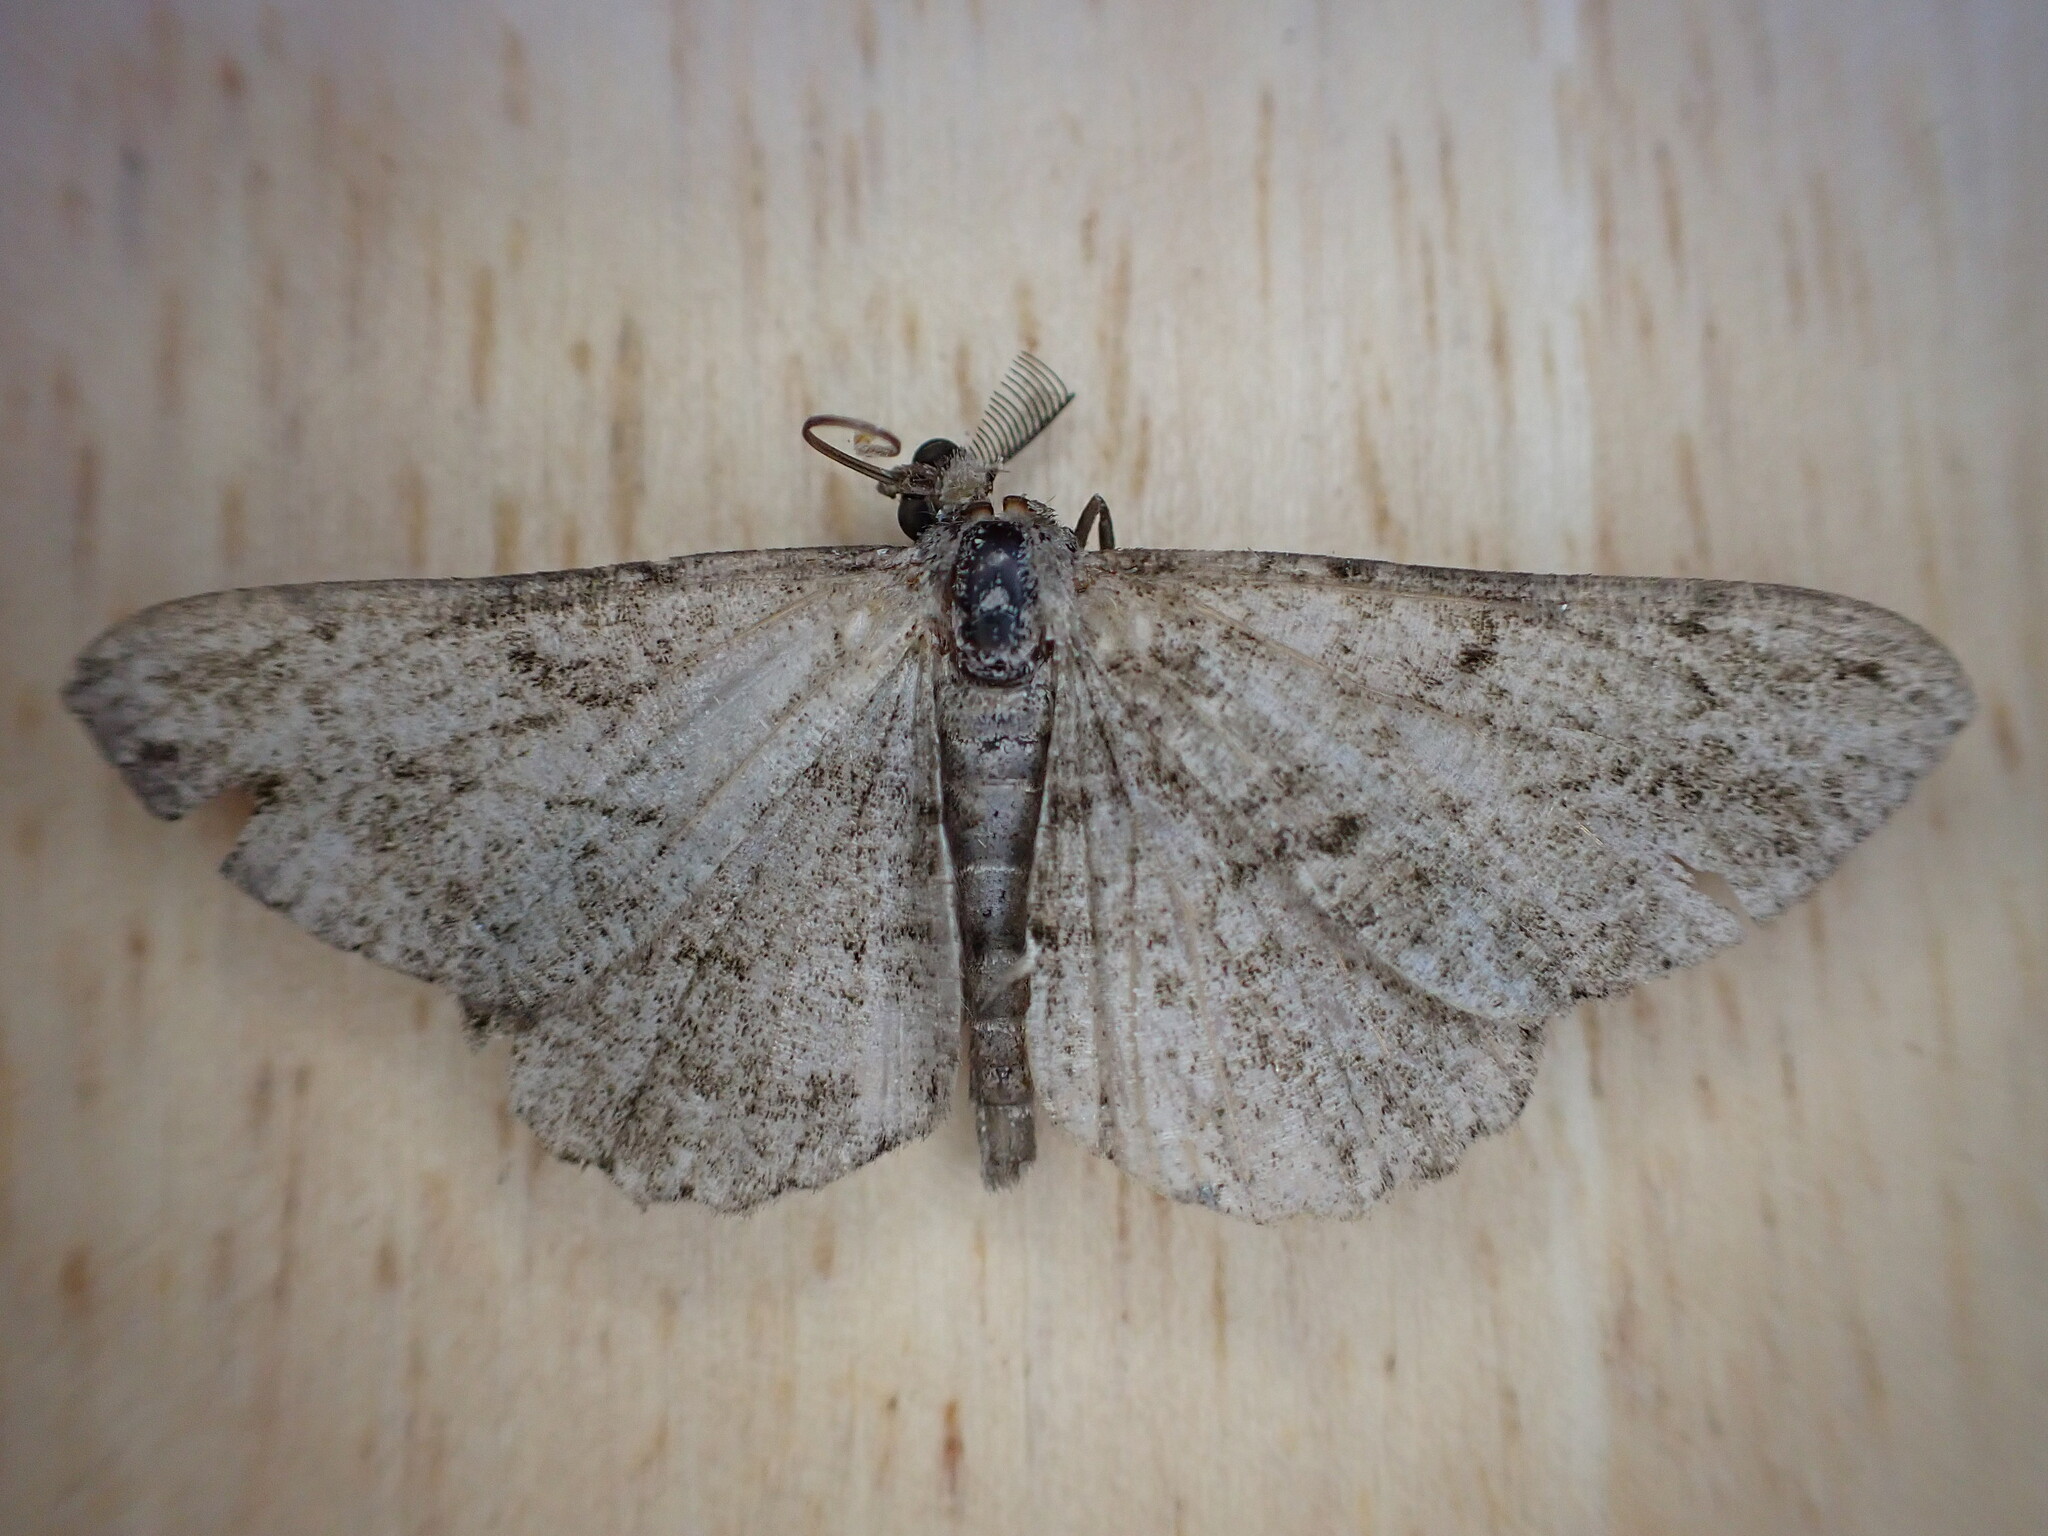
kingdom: Animalia
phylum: Arthropoda
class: Insecta
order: Lepidoptera
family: Geometridae
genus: Peribatodes
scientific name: Peribatodes rhomboidaria
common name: Willow beauty
